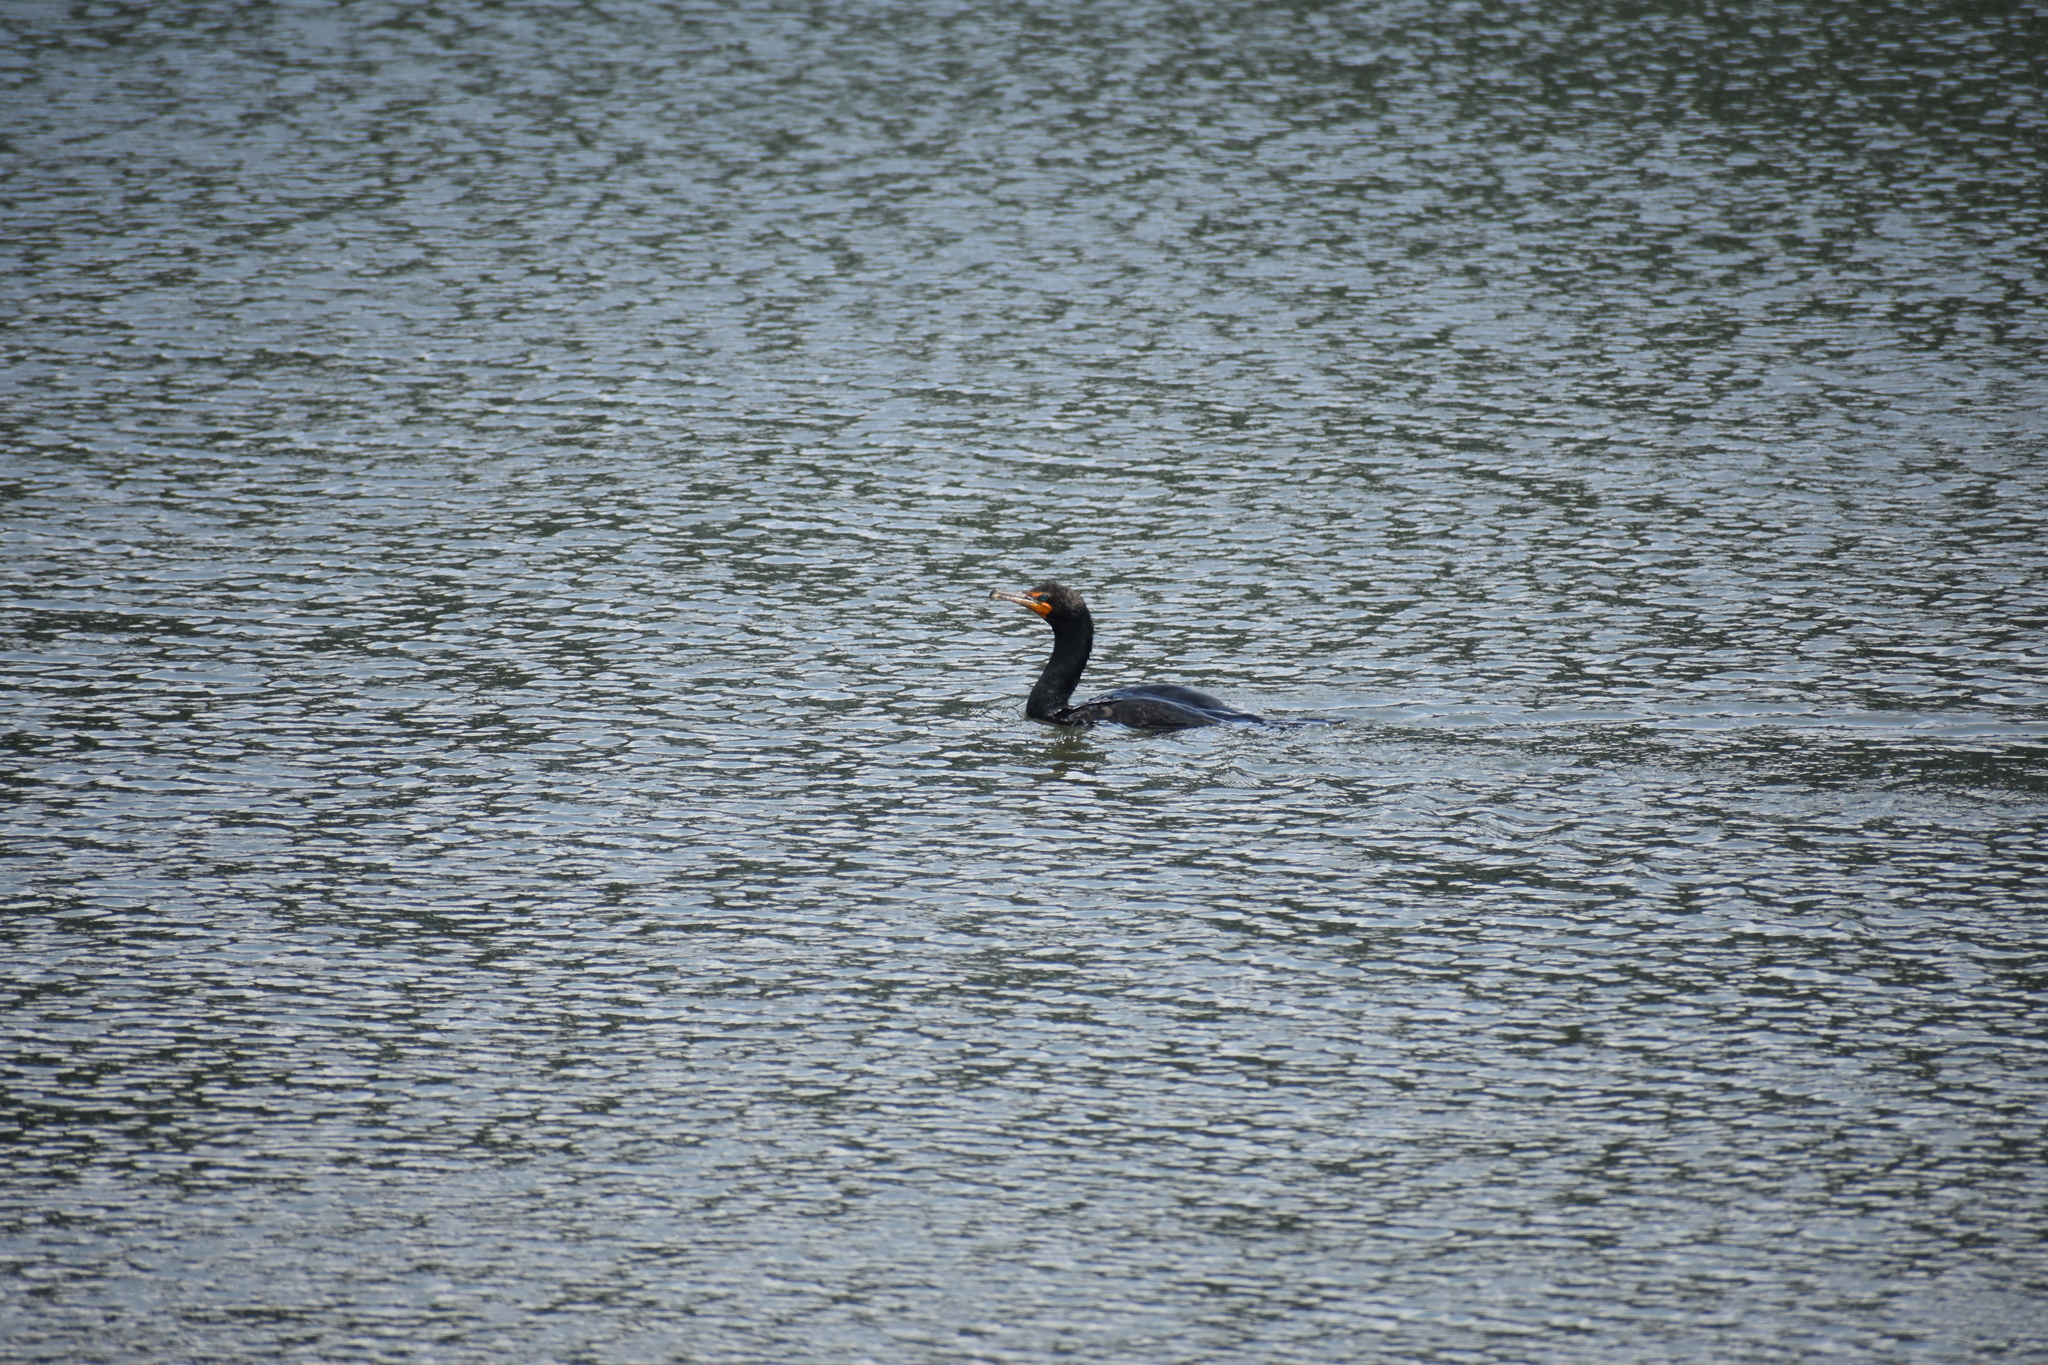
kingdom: Animalia
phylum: Chordata
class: Aves
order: Suliformes
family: Phalacrocoracidae
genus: Phalacrocorax
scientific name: Phalacrocorax auritus
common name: Double-crested cormorant
